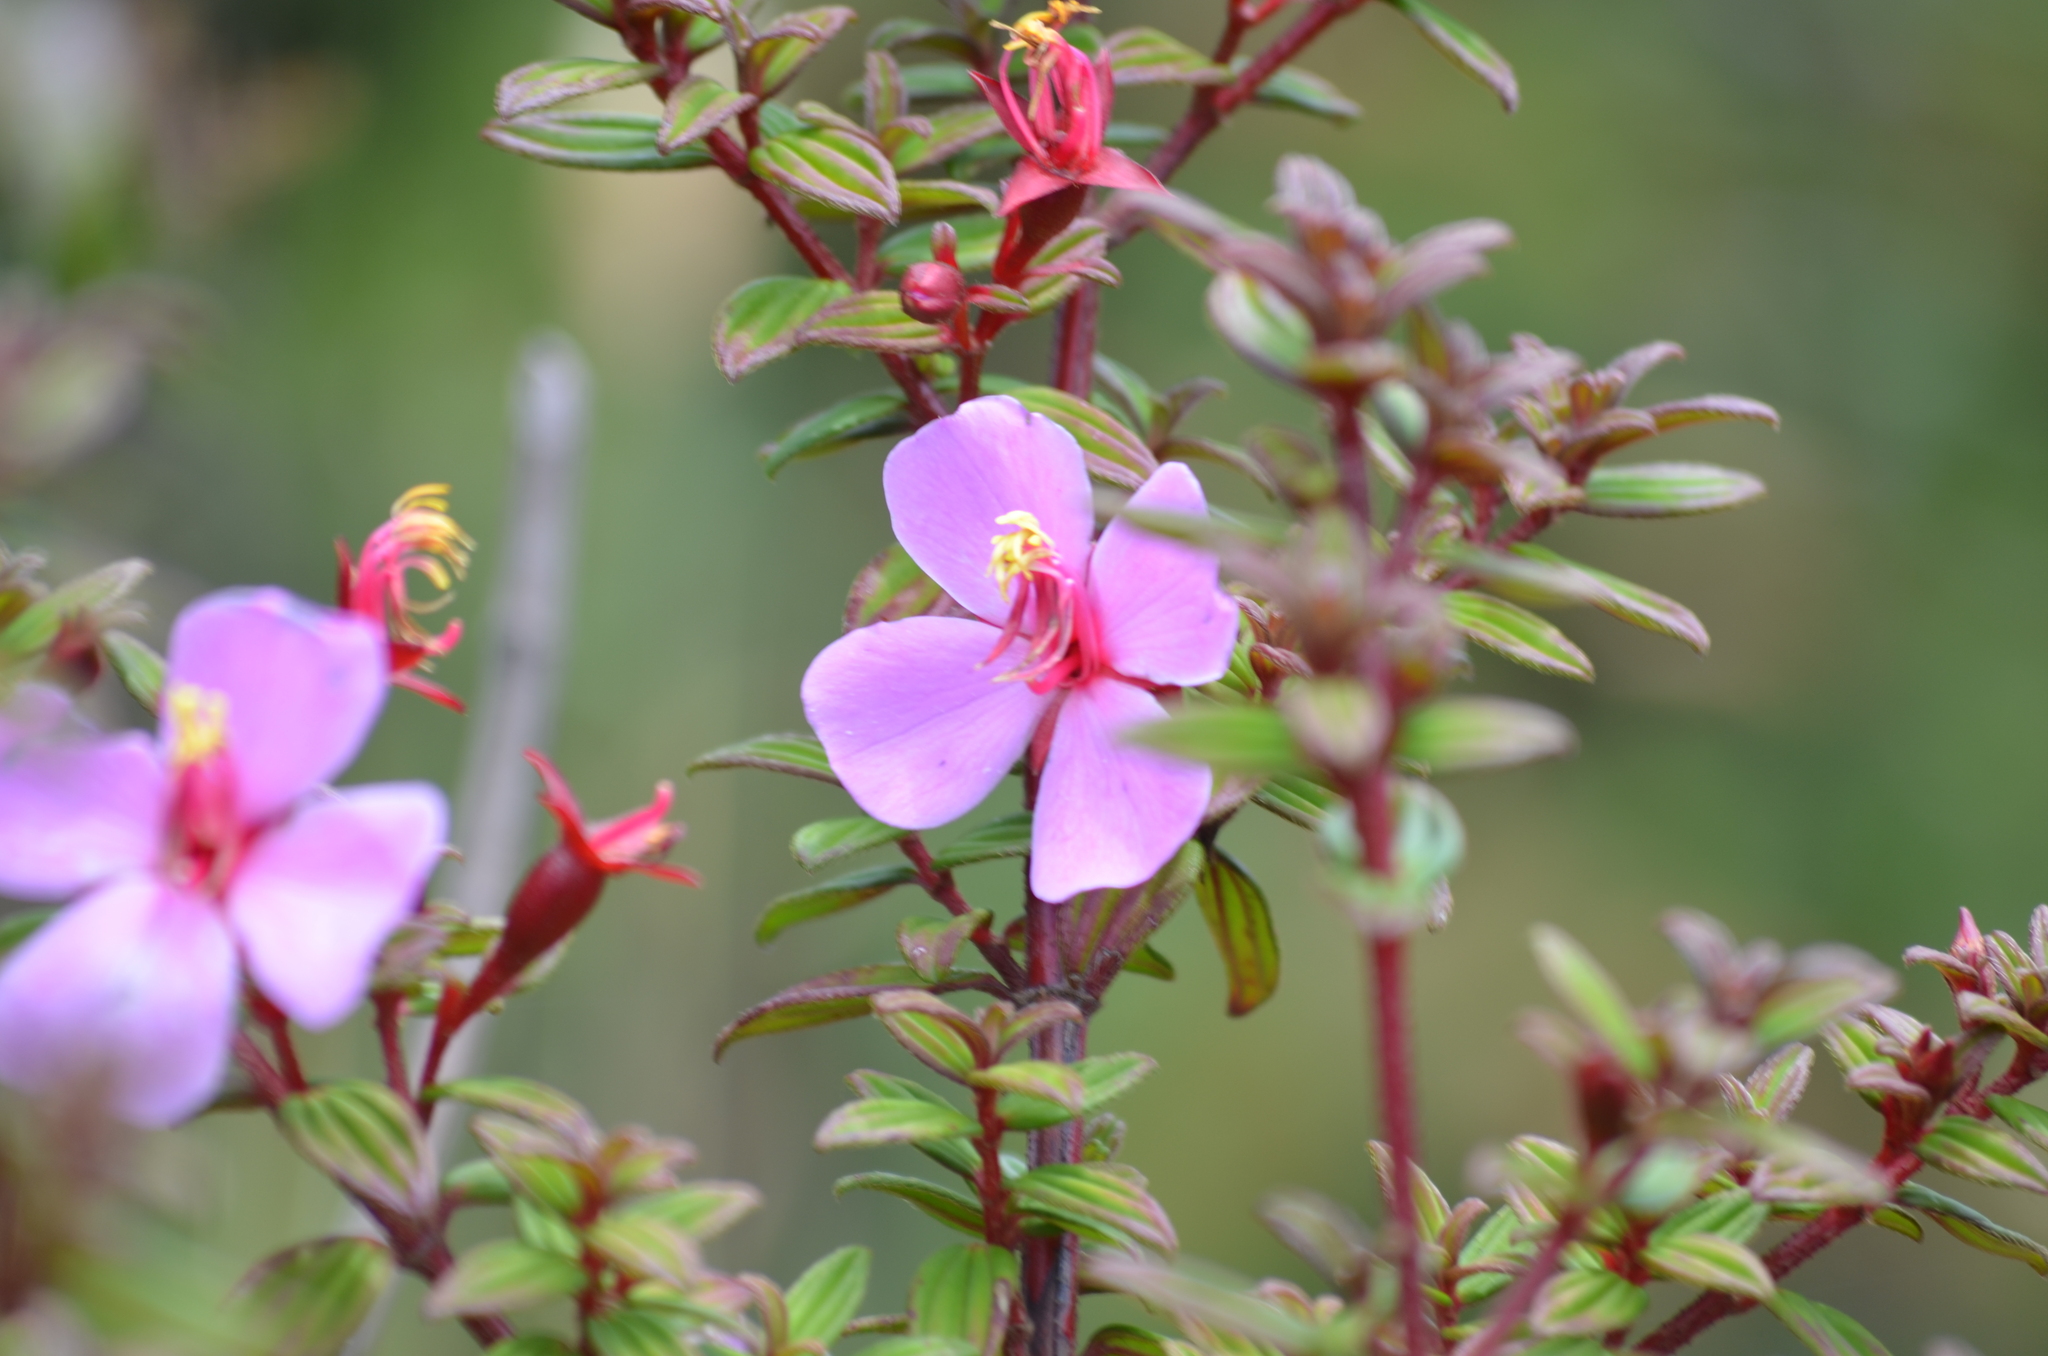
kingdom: Plantae
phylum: Tracheophyta
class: Magnoliopsida
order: Myrtales
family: Melastomataceae
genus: Monochaetum
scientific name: Monochaetum vulcanicum
